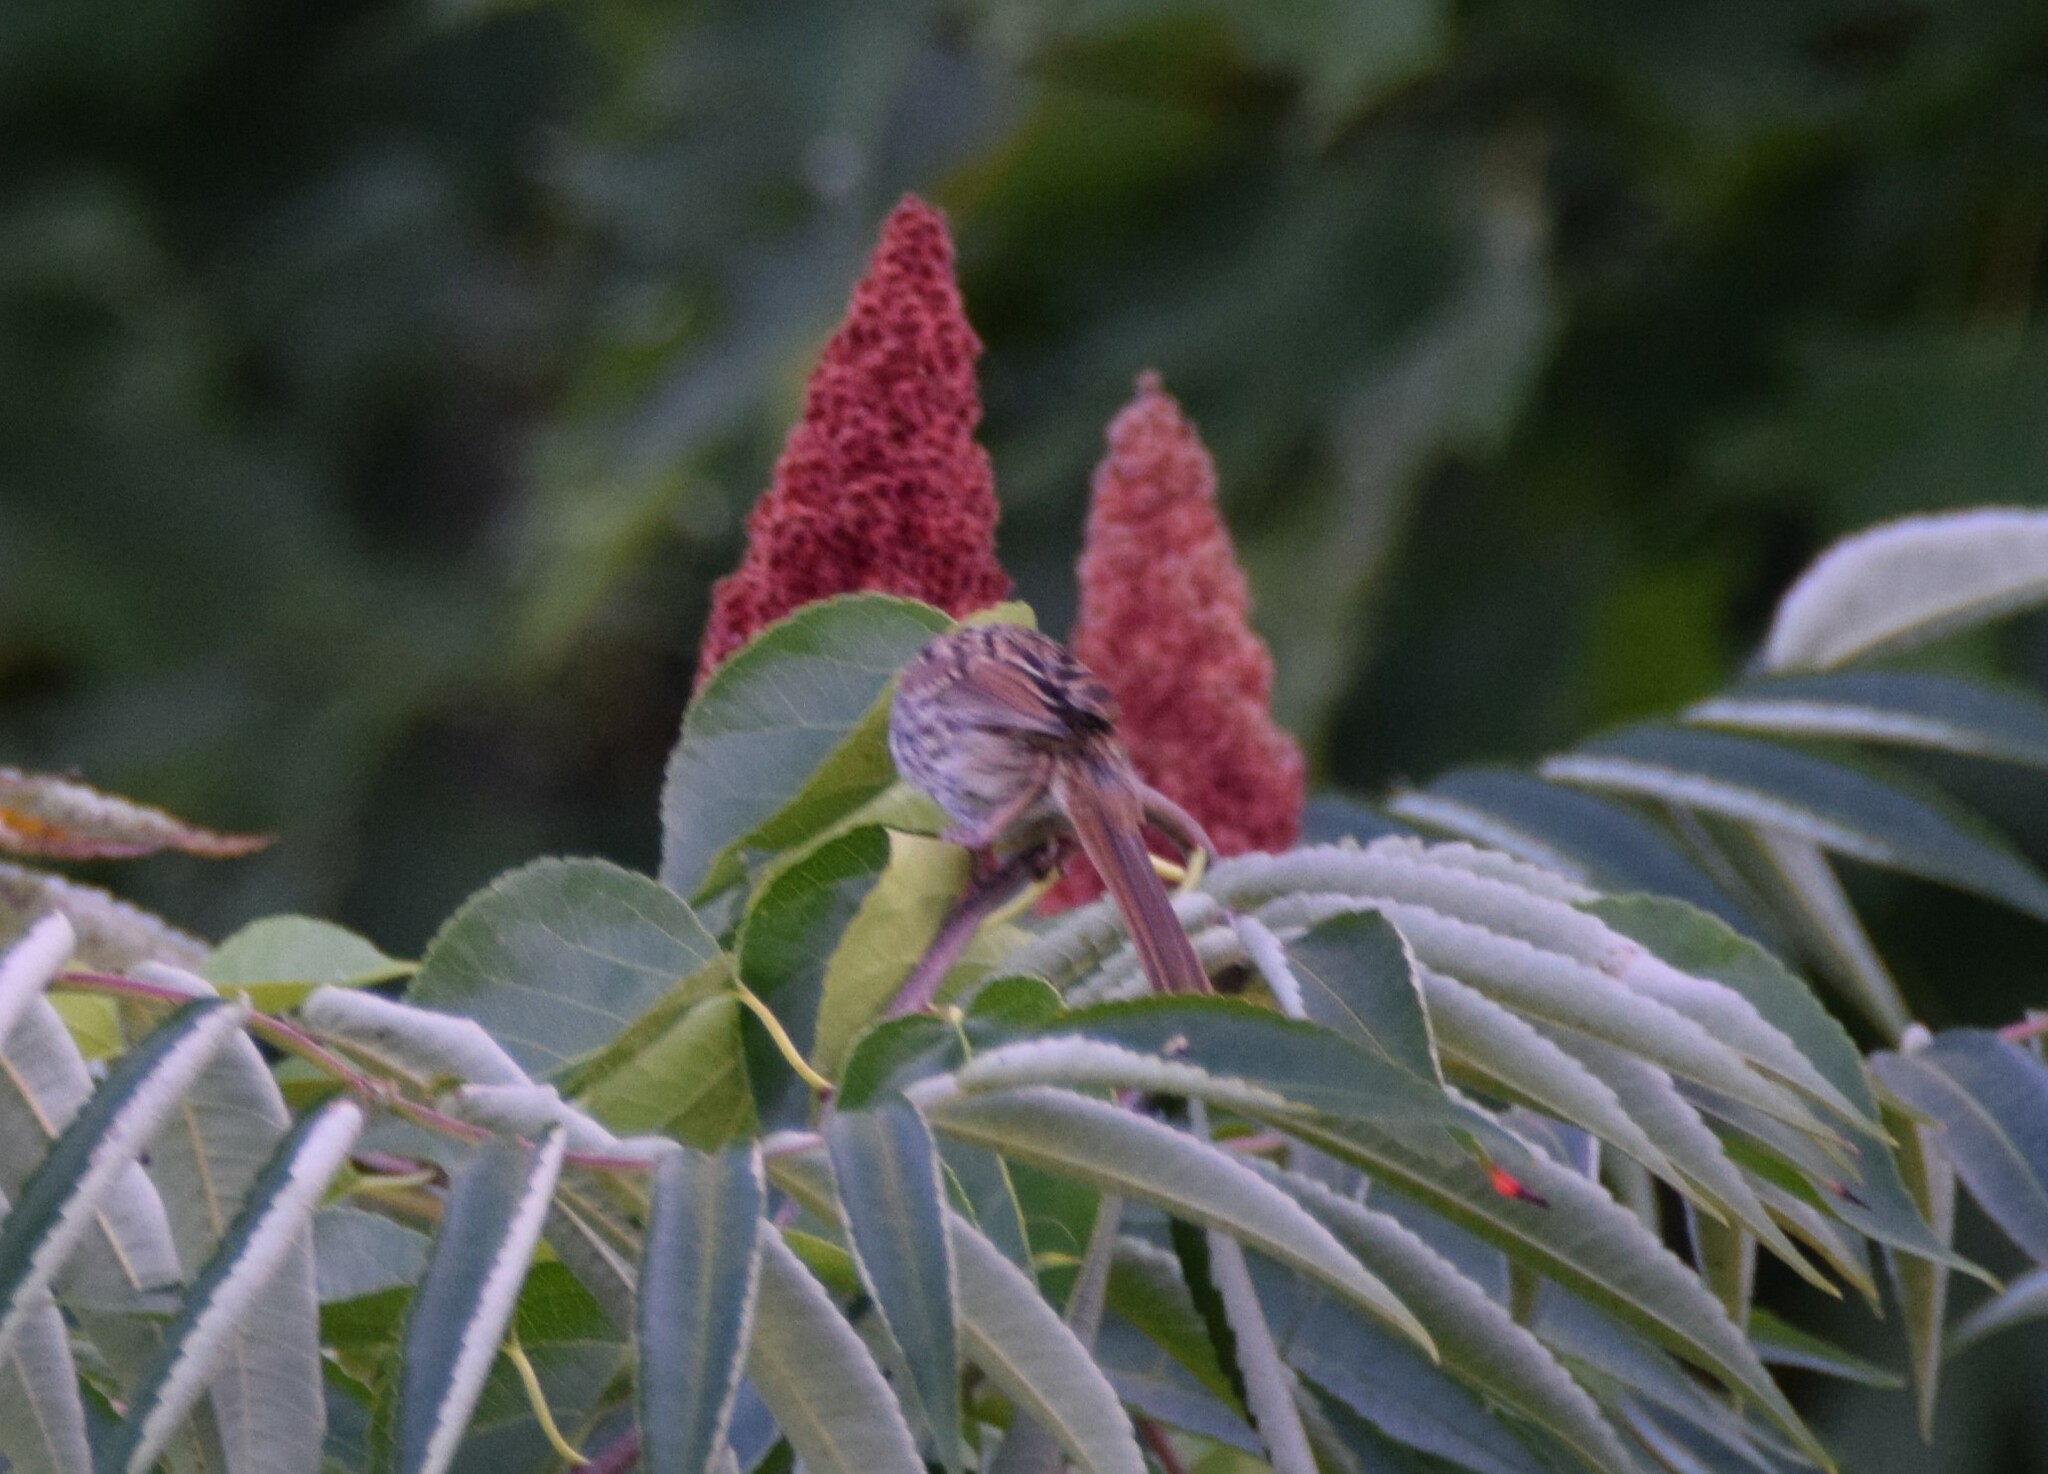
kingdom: Animalia
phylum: Chordata
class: Aves
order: Passeriformes
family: Passerellidae
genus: Melospiza
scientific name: Melospiza melodia
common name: Song sparrow
